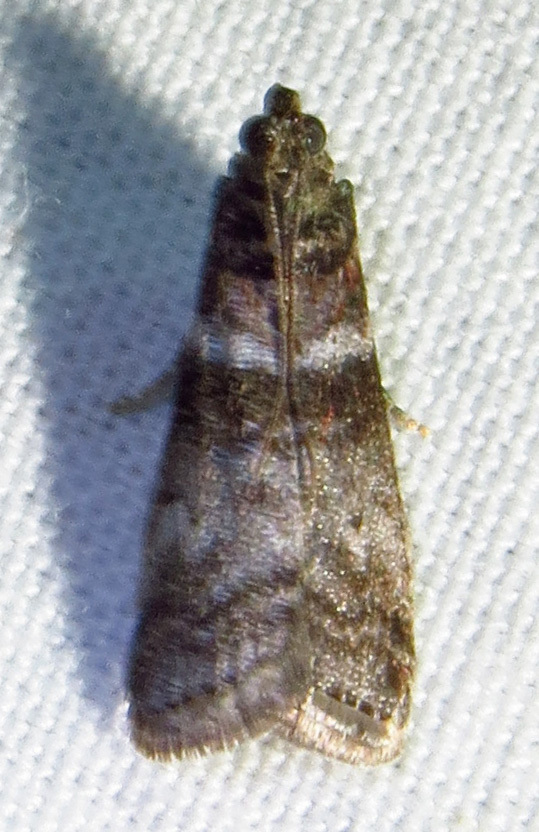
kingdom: Animalia
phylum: Arthropoda
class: Insecta
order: Lepidoptera
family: Pyralidae
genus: Sciota
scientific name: Sciota uvinella
